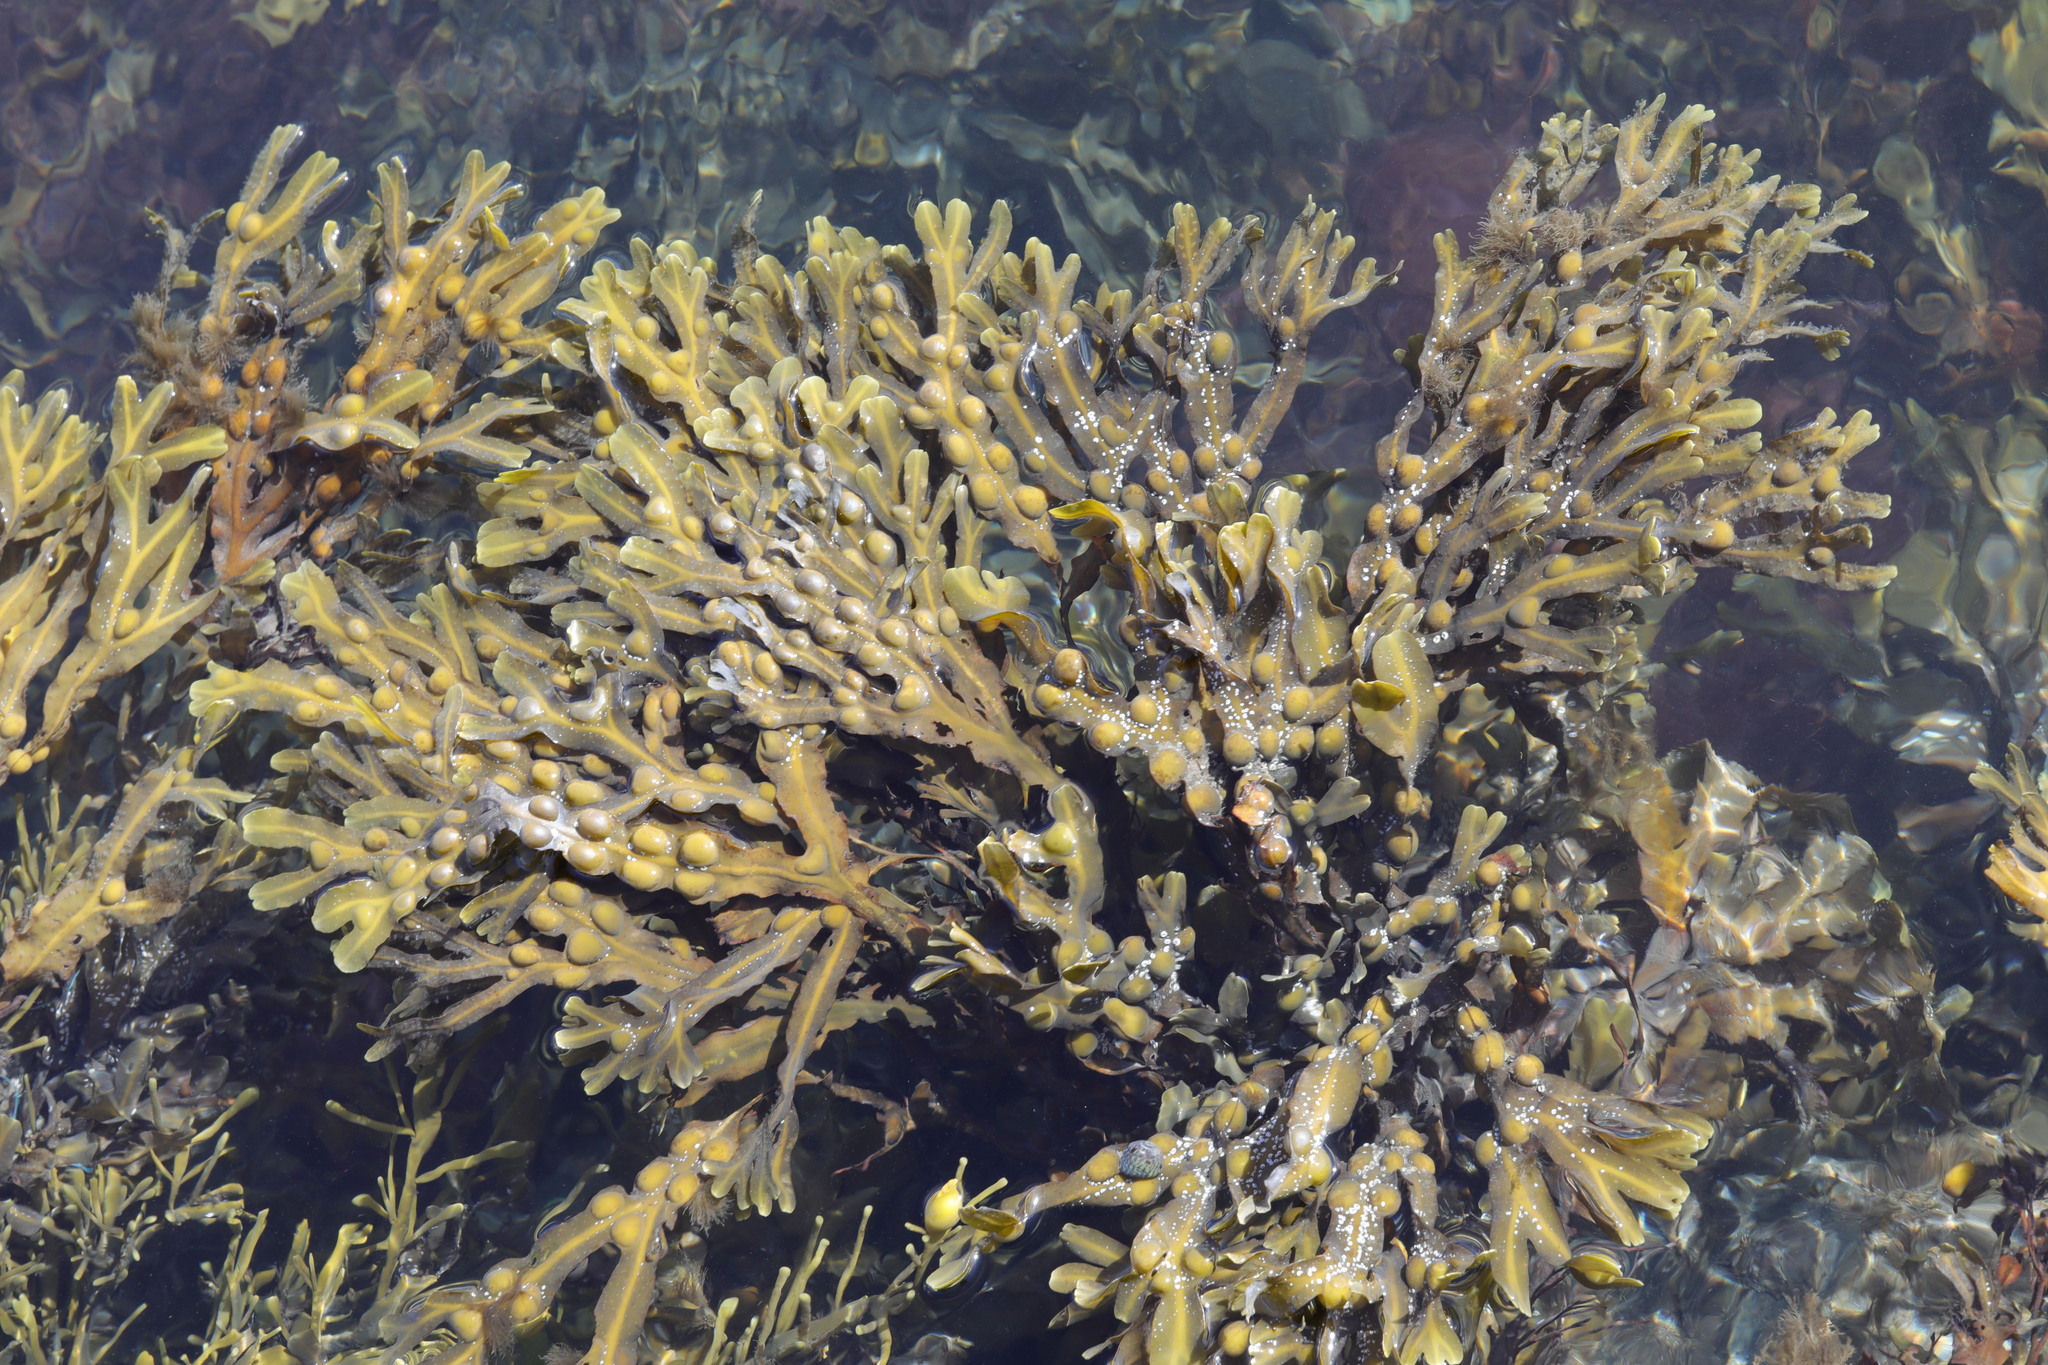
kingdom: Chromista
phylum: Ochrophyta
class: Phaeophyceae
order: Fucales
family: Fucaceae
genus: Fucus
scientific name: Fucus vesiculosus
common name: Bladder wrack
